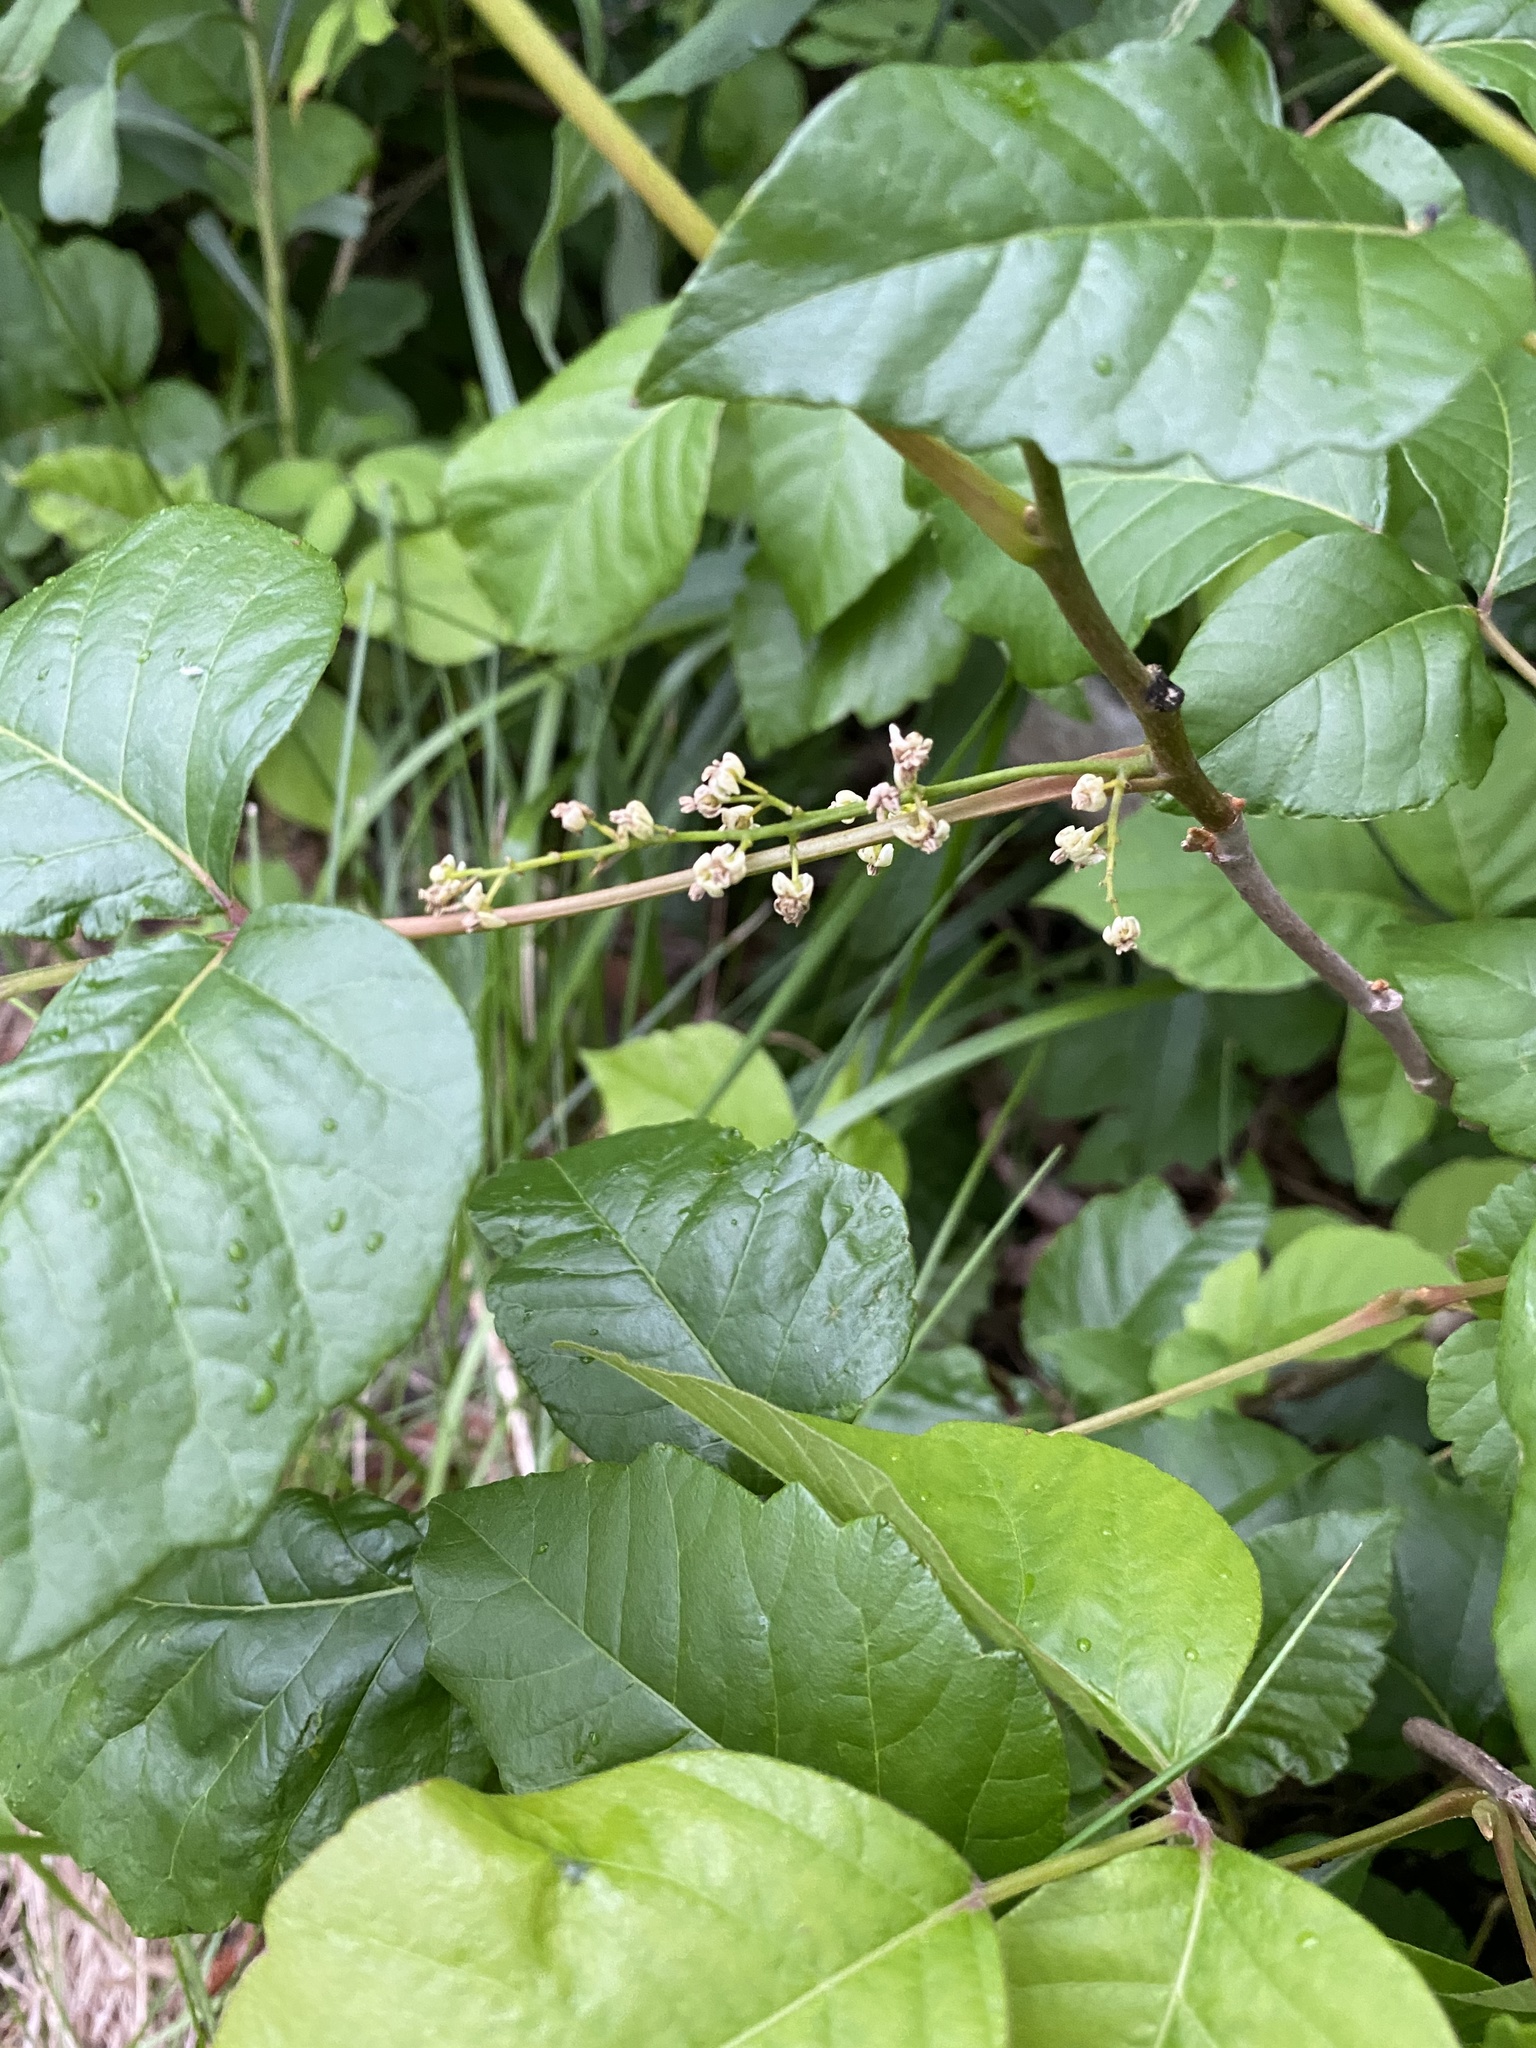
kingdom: Plantae
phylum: Tracheophyta
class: Magnoliopsida
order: Sapindales
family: Anacardiaceae
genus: Toxicodendron
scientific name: Toxicodendron radicans
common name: Poison ivy
